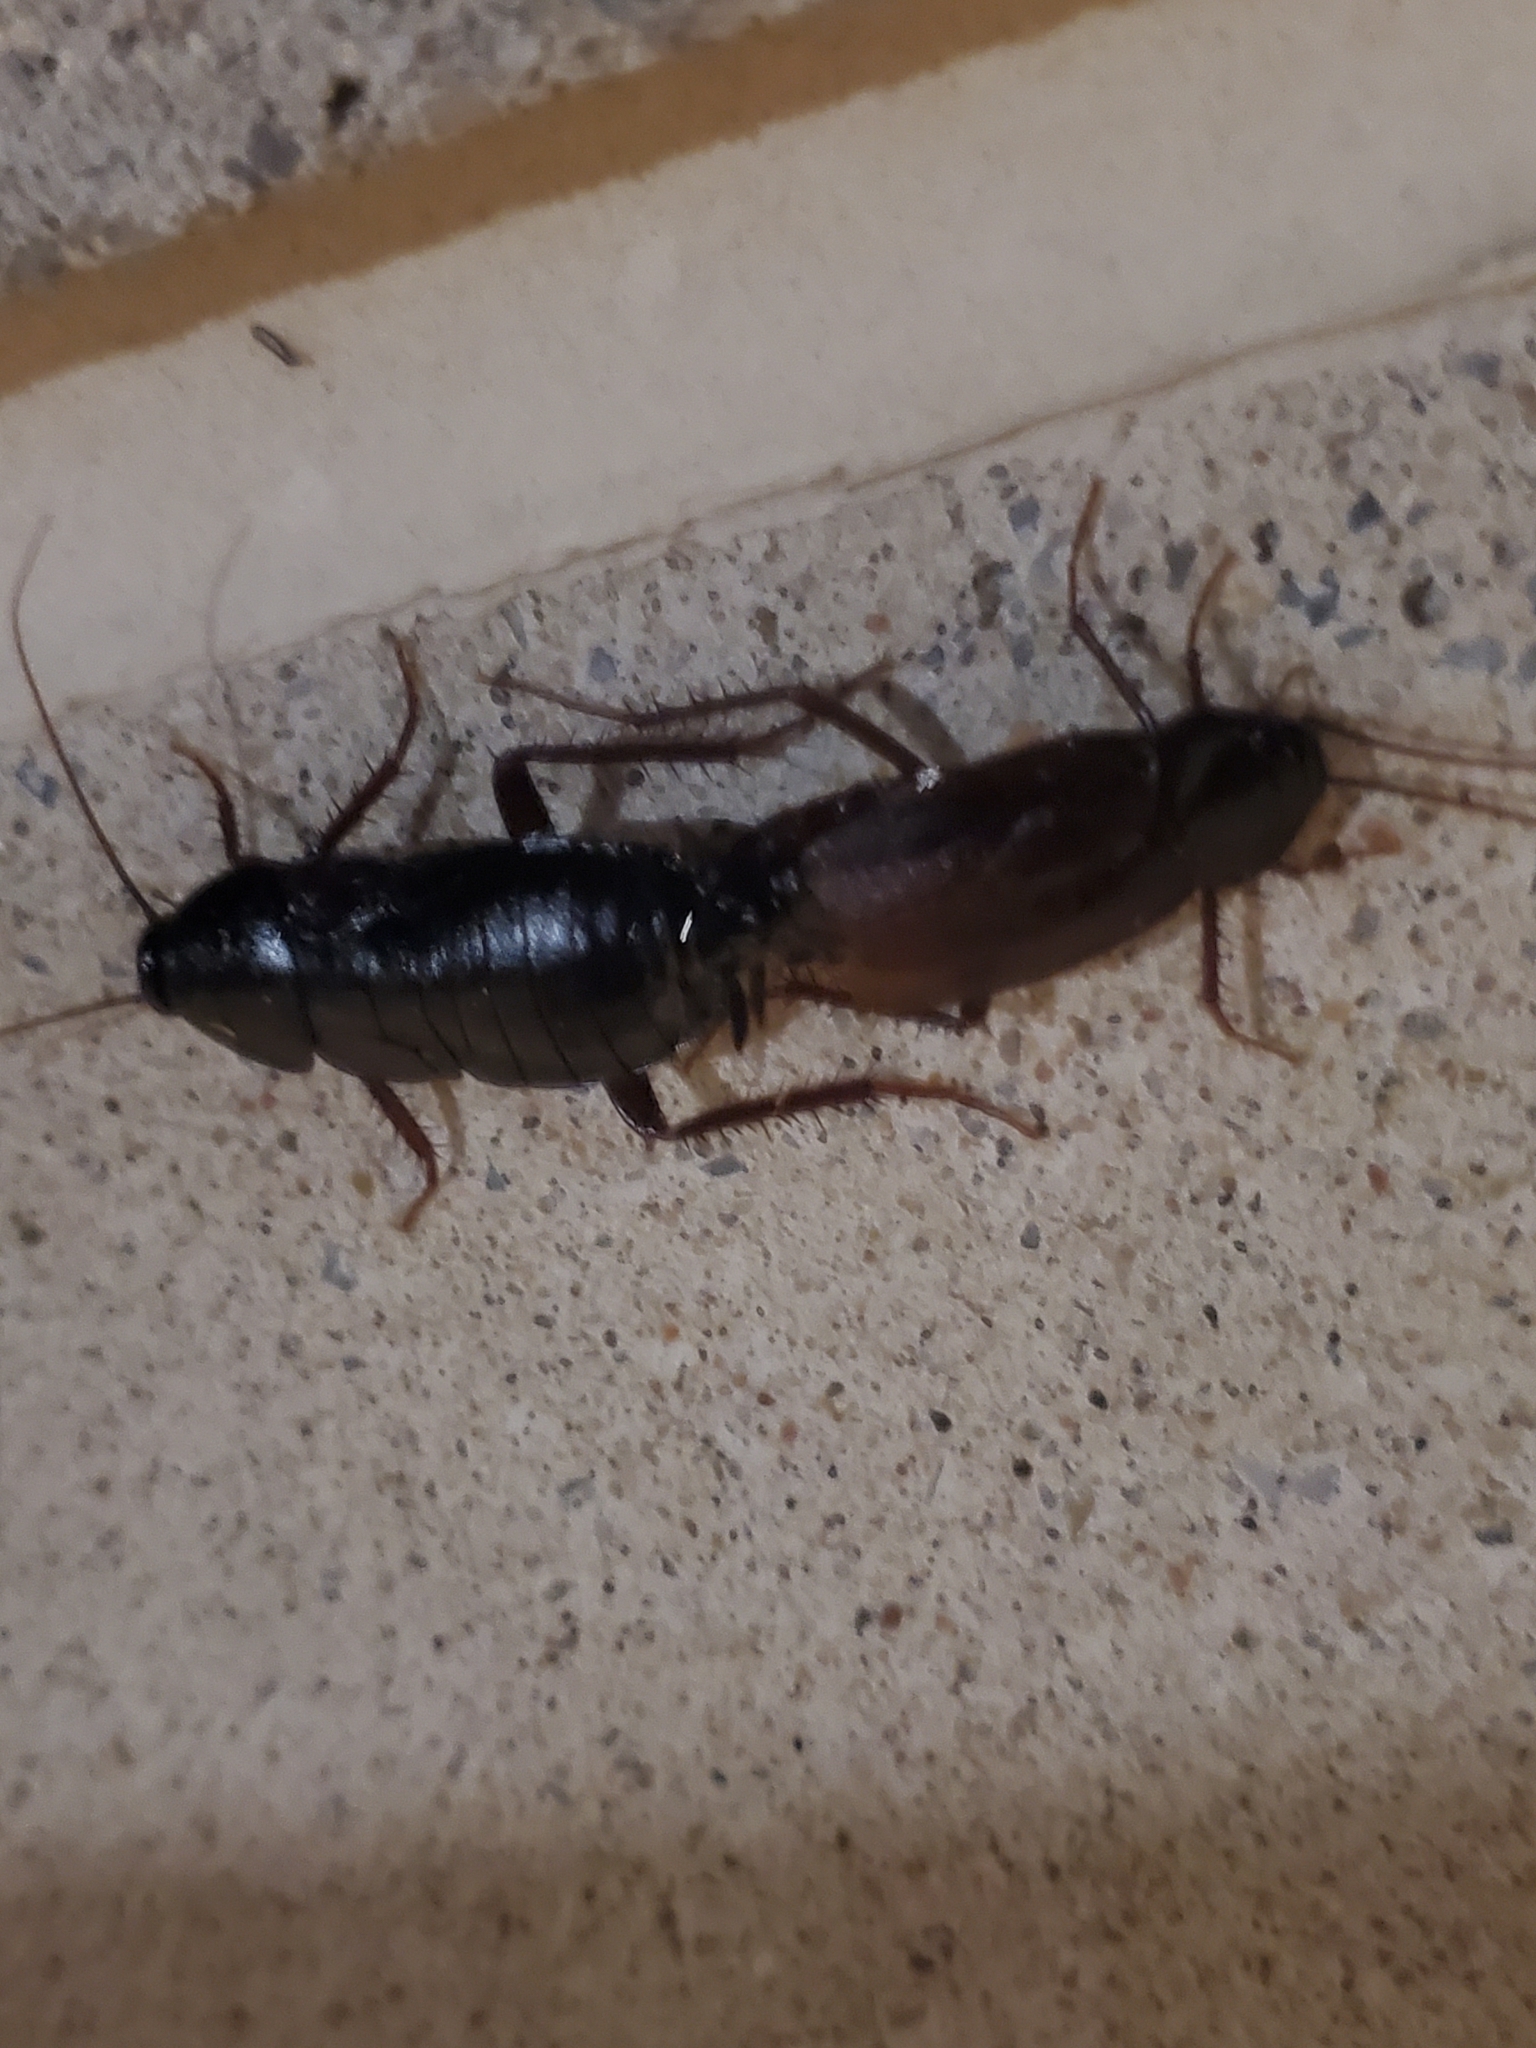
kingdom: Animalia
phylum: Arthropoda
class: Insecta
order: Blattodea
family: Blattidae
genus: Blatta
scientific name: Blatta orientalis
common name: Oriental cockroach
